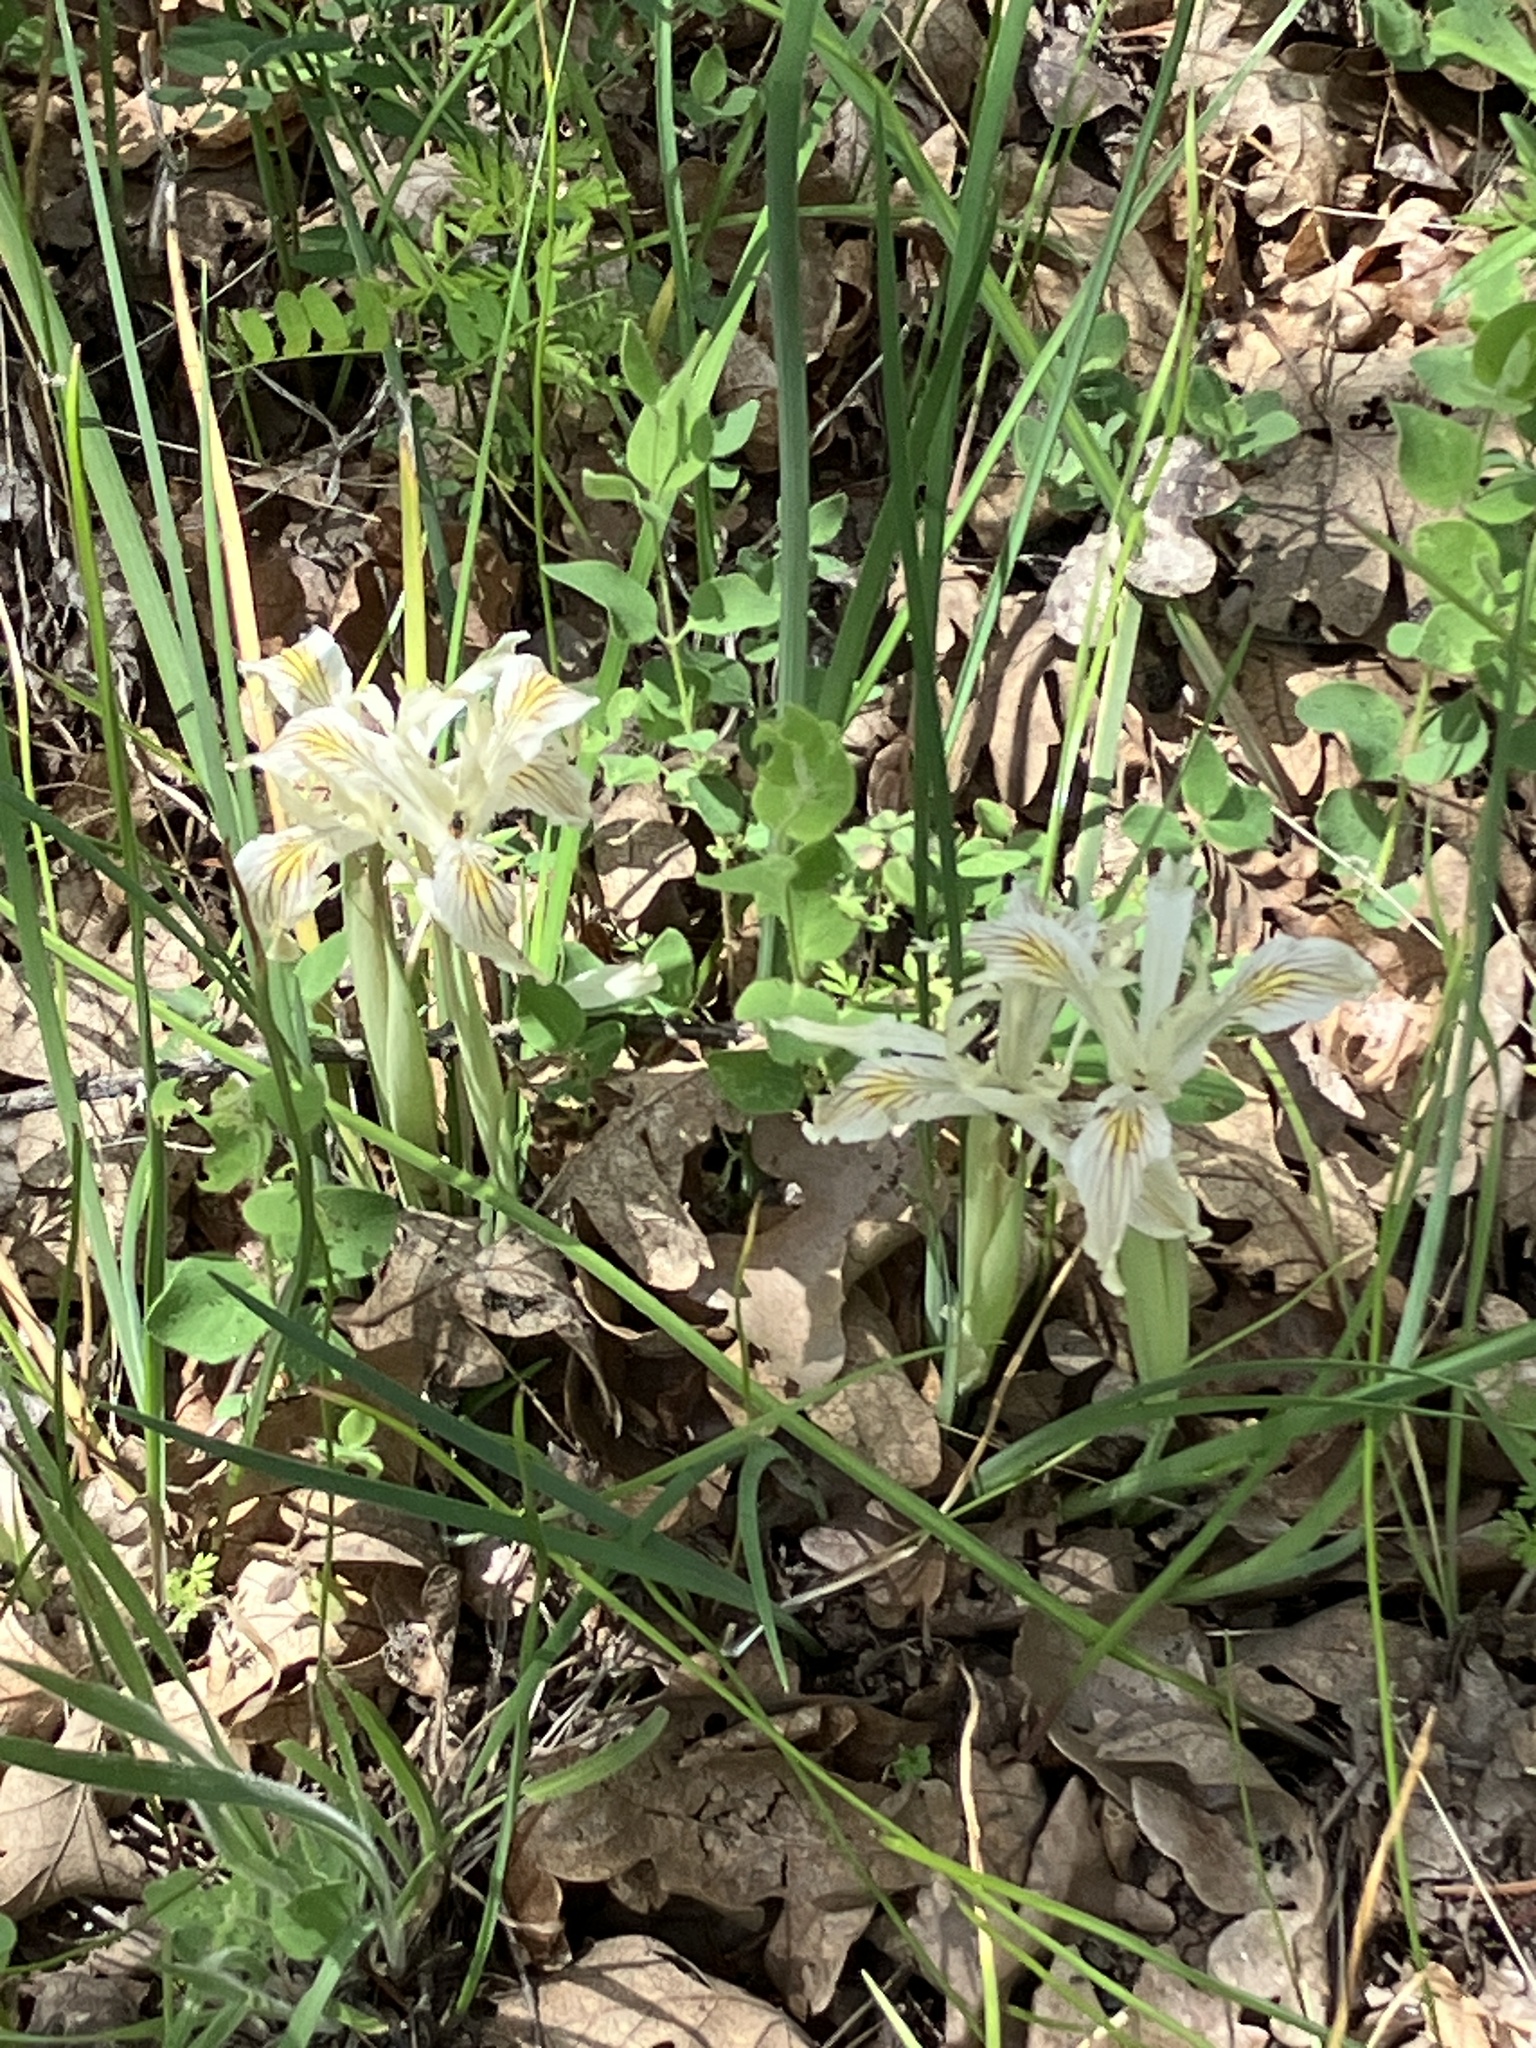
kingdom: Plantae
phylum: Tracheophyta
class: Liliopsida
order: Asparagales
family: Iridaceae
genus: Iris
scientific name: Iris chrysophylla
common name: Yellow-leaf iris
